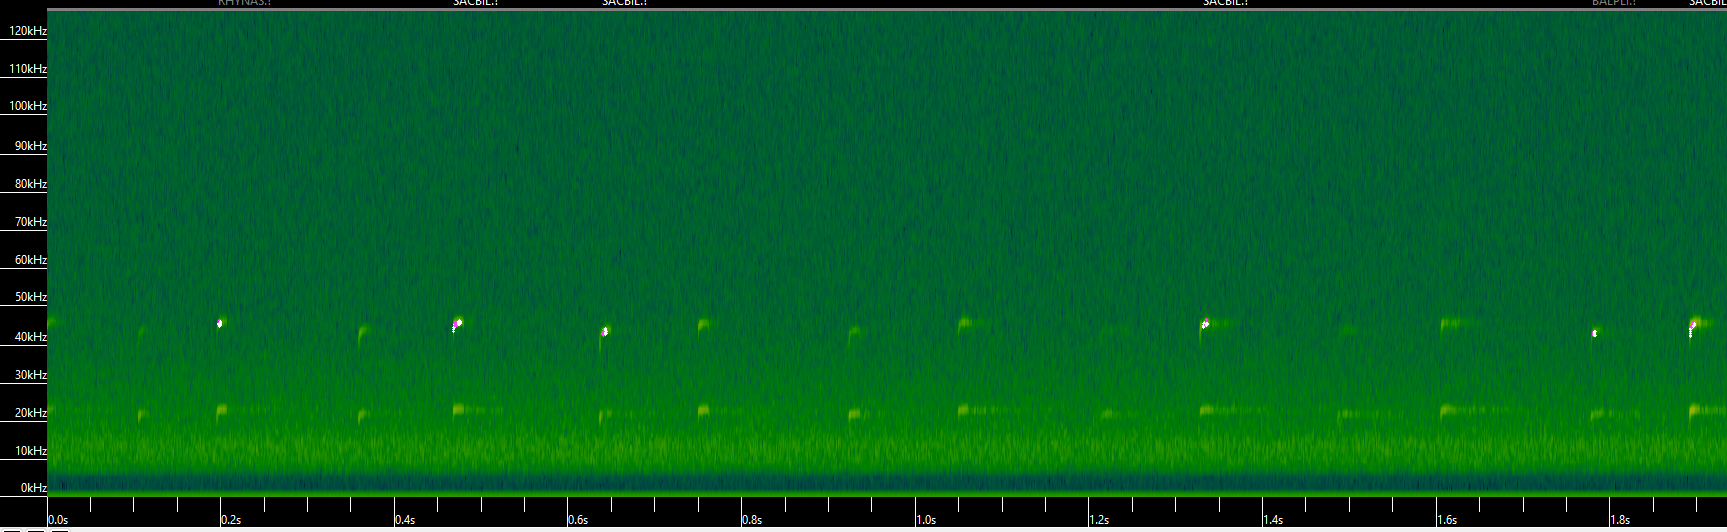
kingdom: Animalia
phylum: Chordata
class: Mammalia
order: Chiroptera
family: Emballonuridae
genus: Saccopteryx
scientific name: Saccopteryx bilineata
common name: Greater sac-winged bat
